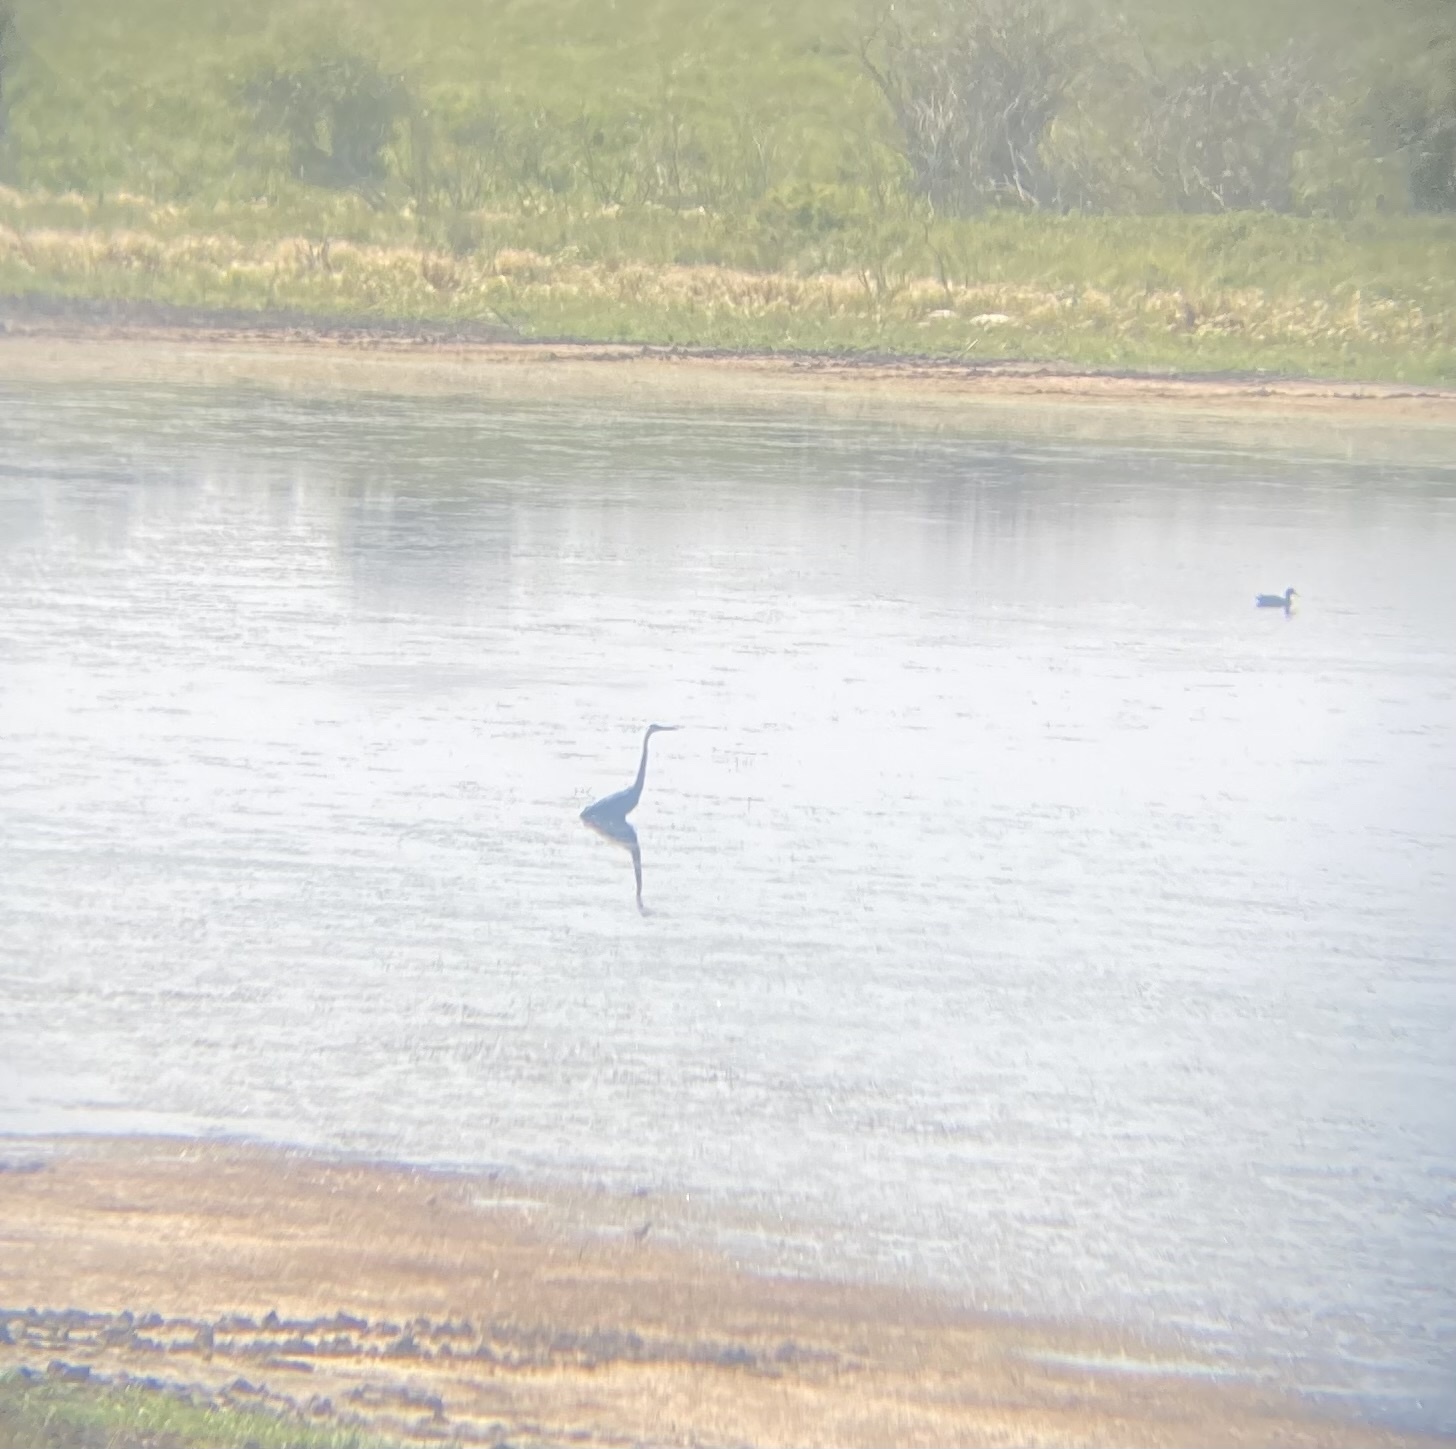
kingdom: Animalia
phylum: Chordata
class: Aves
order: Pelecaniformes
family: Ardeidae
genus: Ardea
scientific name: Ardea herodias
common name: Great blue heron
